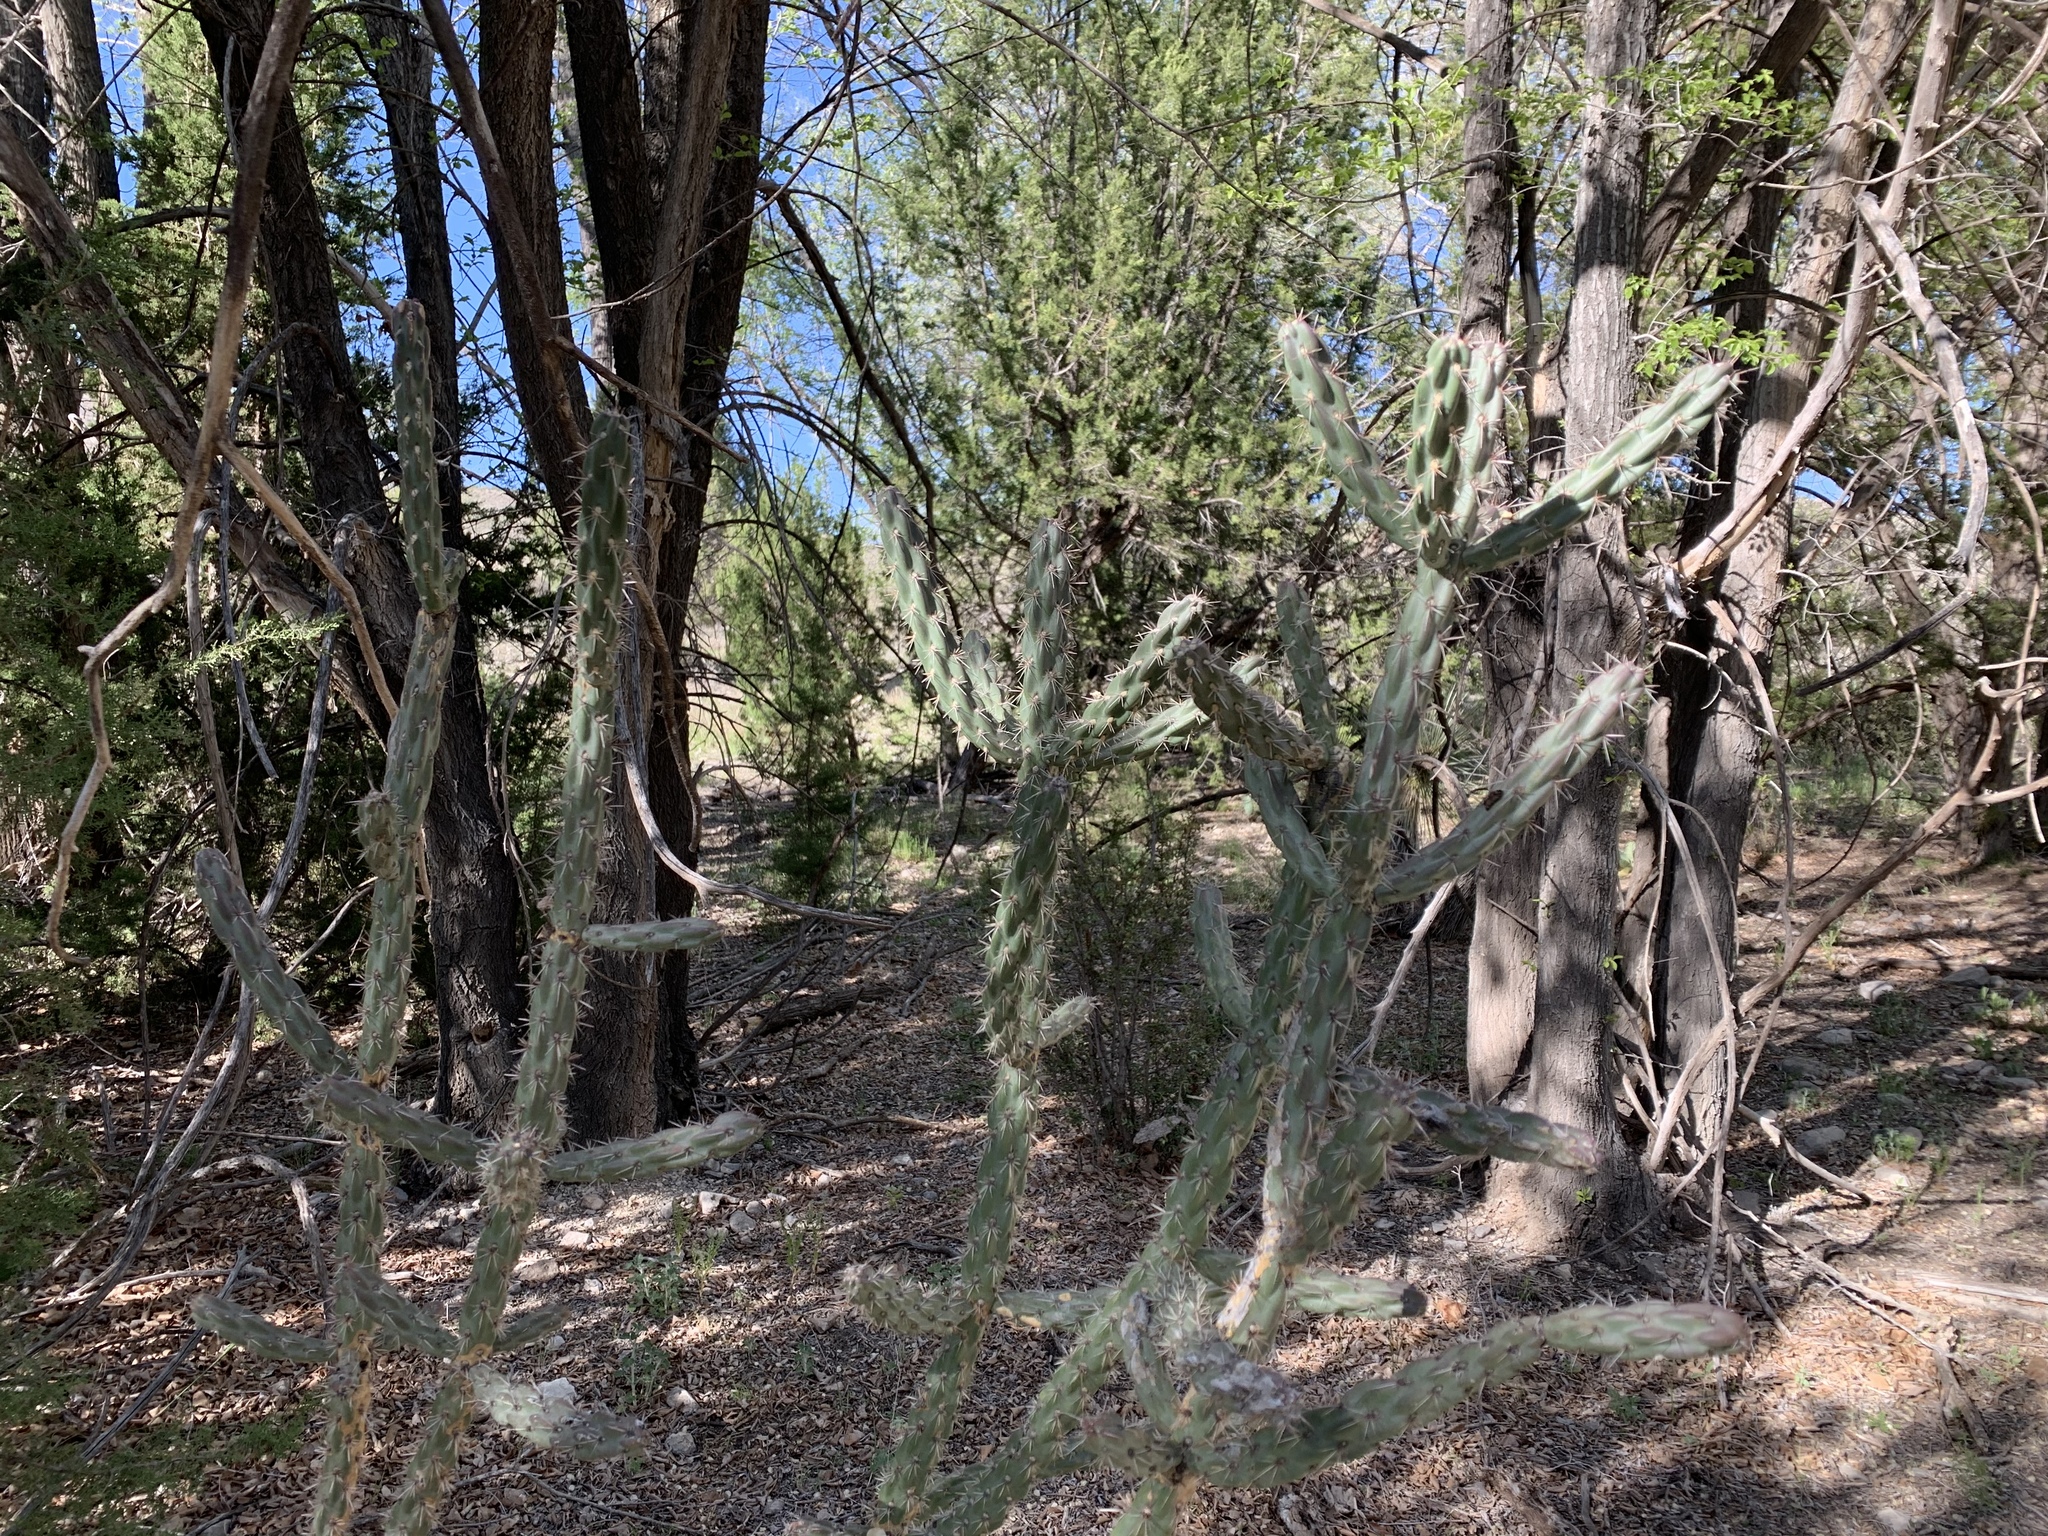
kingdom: Plantae
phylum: Tracheophyta
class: Magnoliopsida
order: Caryophyllales
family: Cactaceae
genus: Cylindropuntia
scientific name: Cylindropuntia imbricata
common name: Candelabrum cactus
